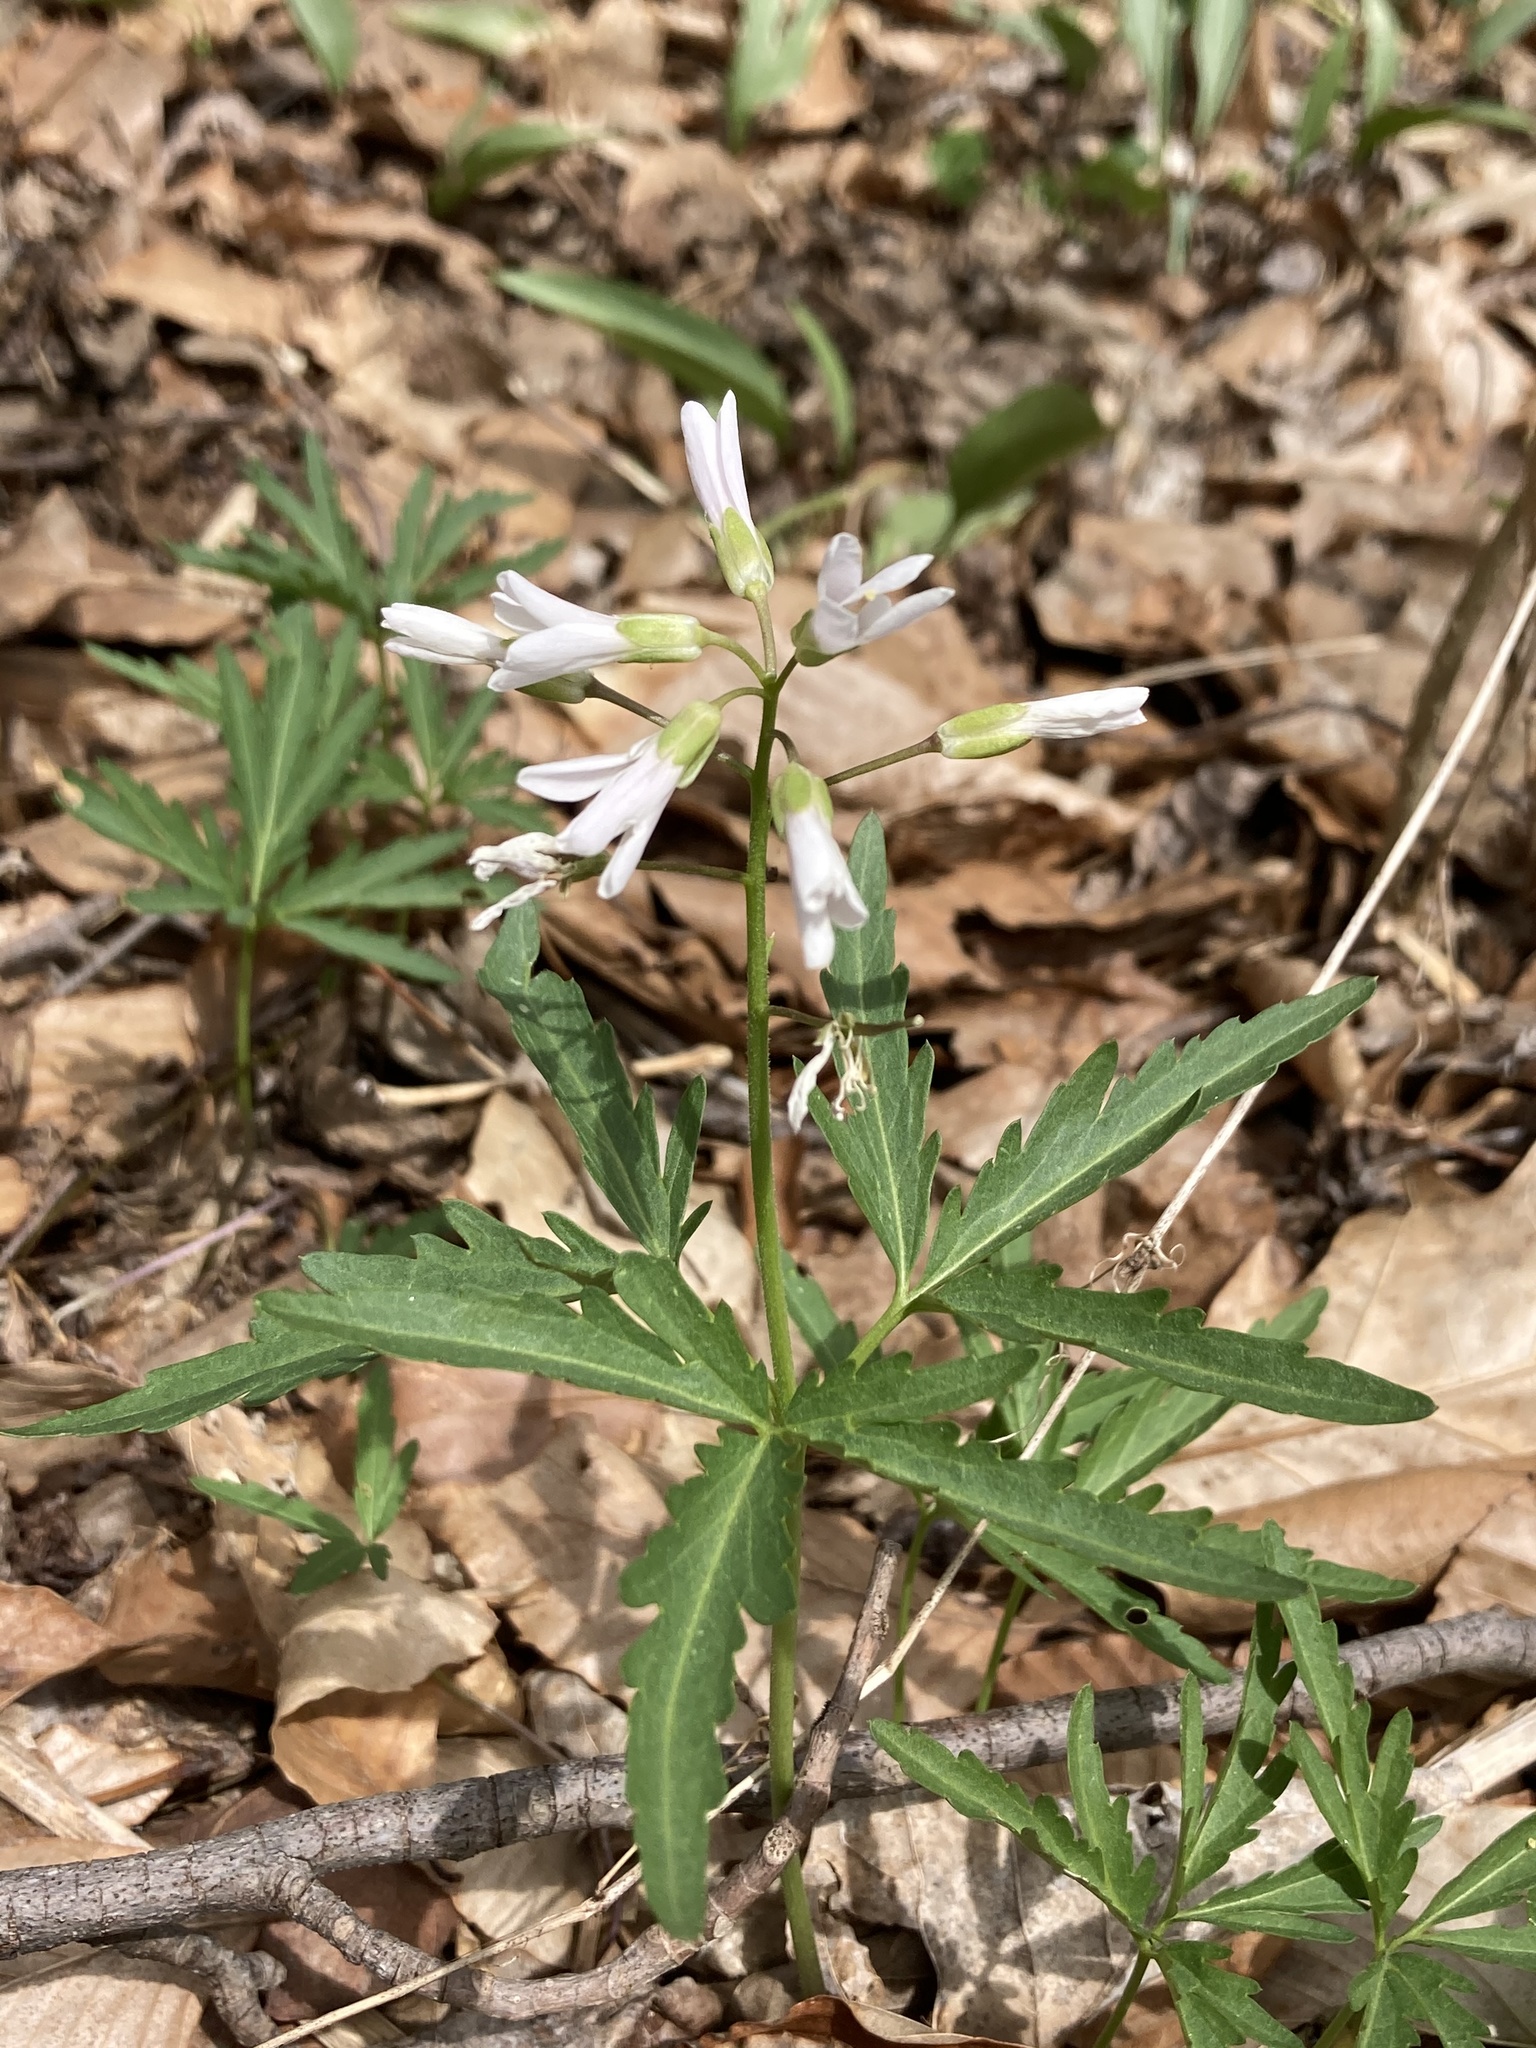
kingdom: Plantae
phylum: Tracheophyta
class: Magnoliopsida
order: Brassicales
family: Brassicaceae
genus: Cardamine
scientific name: Cardamine concatenata
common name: Cut-leaf toothcup
